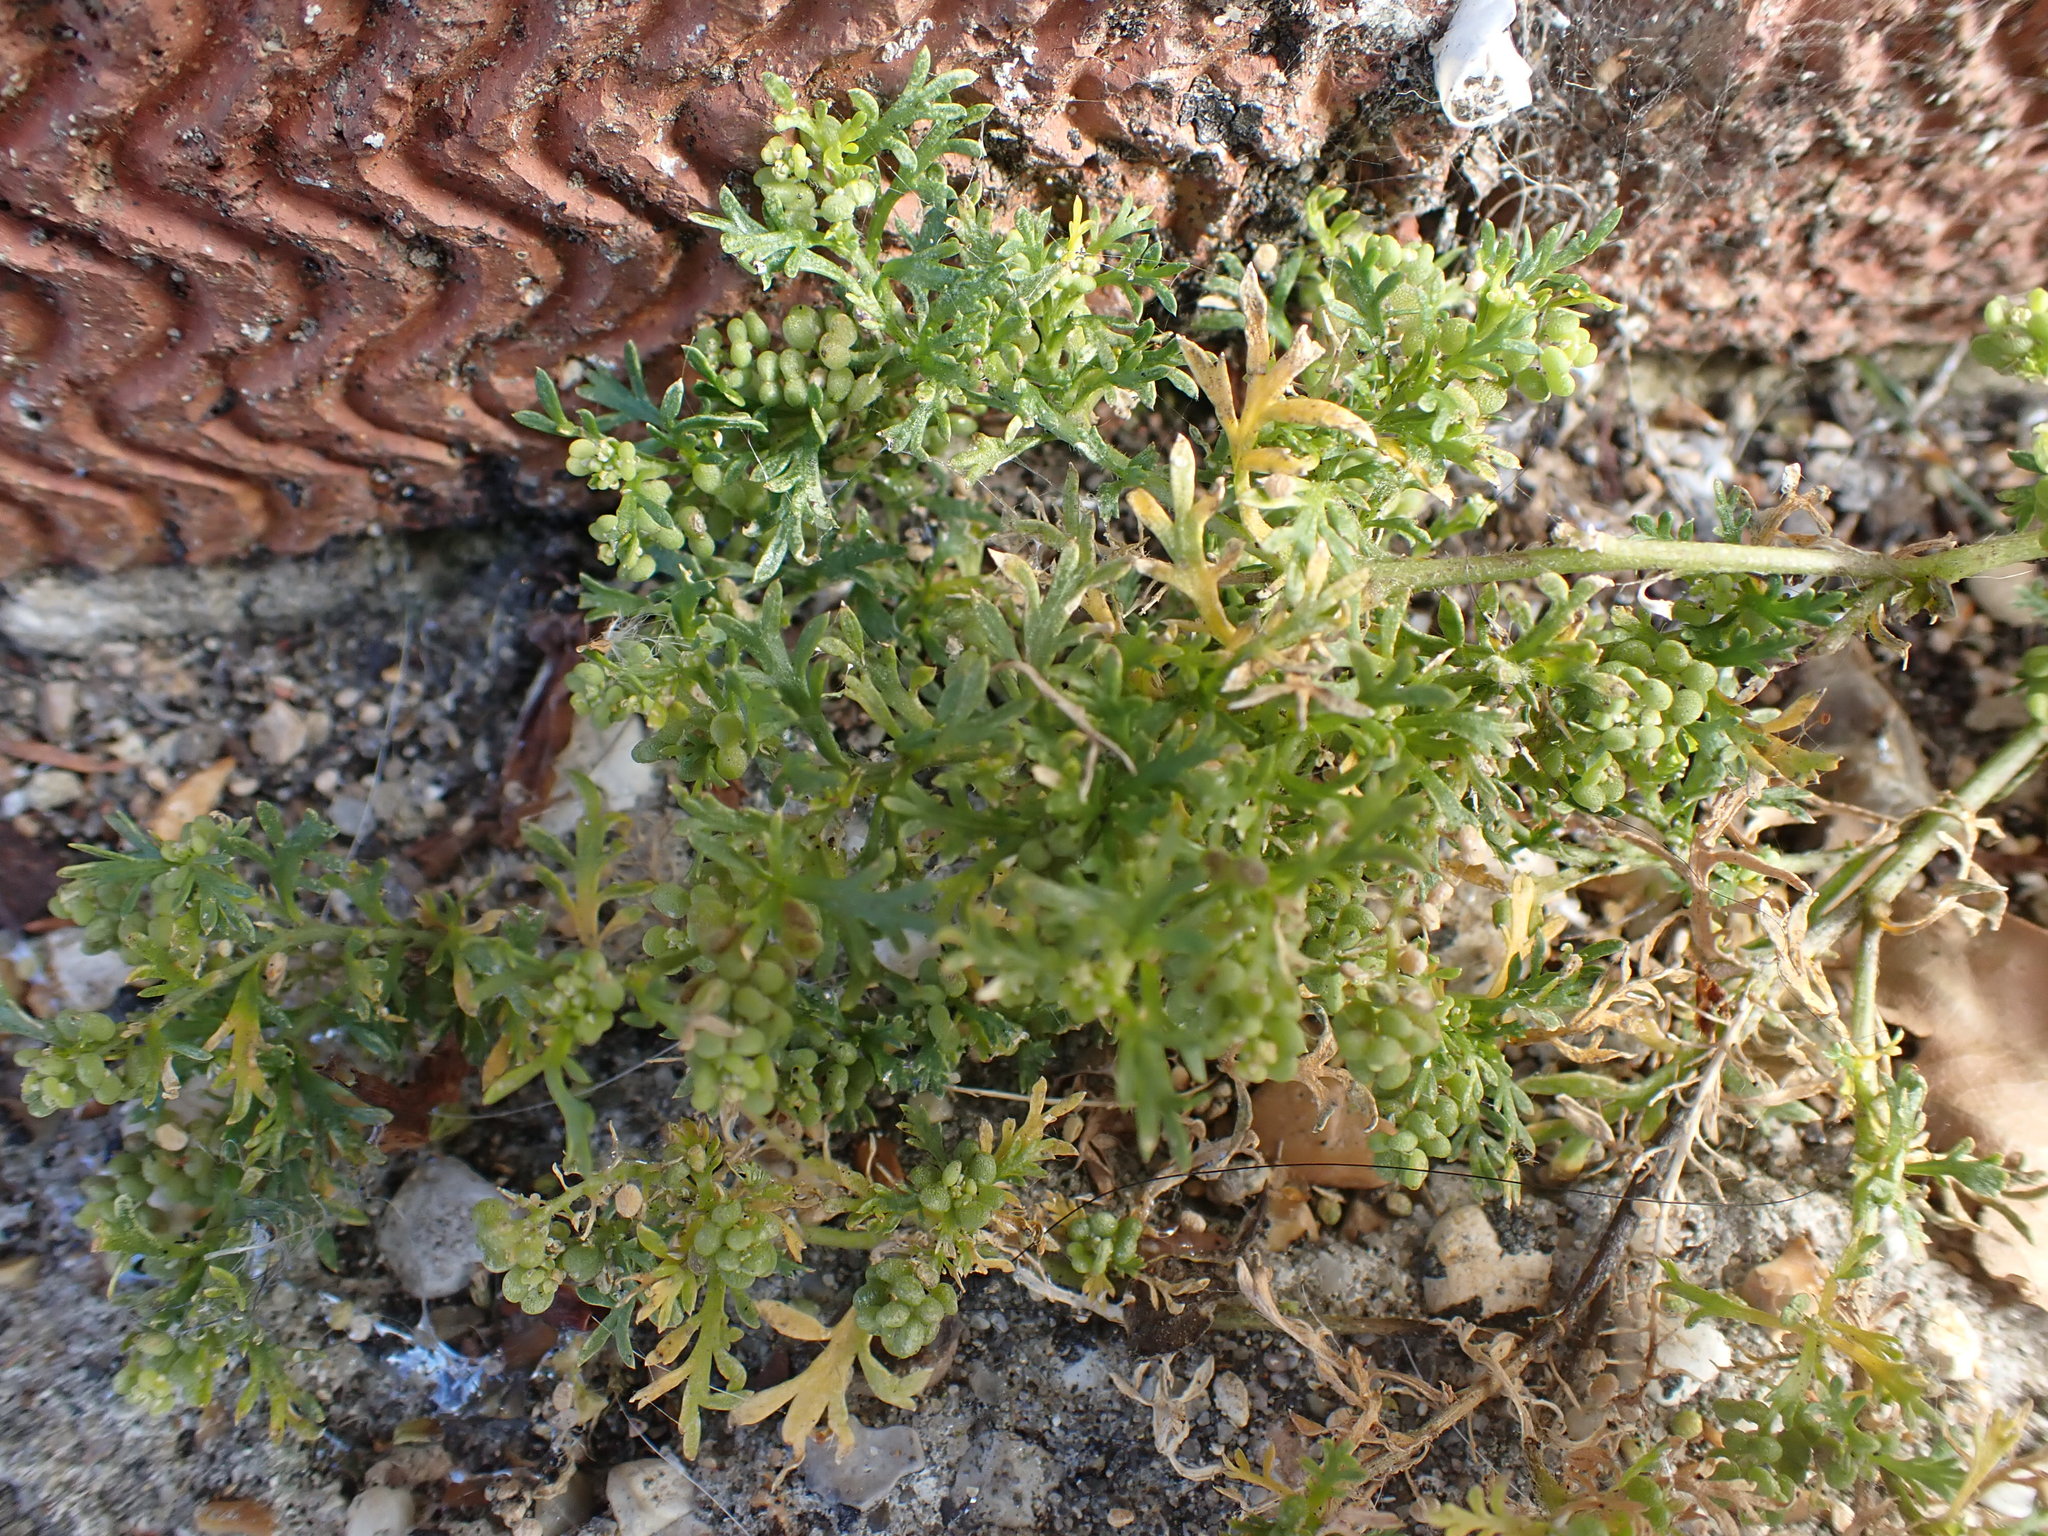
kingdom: Plantae
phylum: Tracheophyta
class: Magnoliopsida
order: Brassicales
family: Brassicaceae
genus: Lepidium
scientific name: Lepidium didymum
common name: Lesser swinecress
